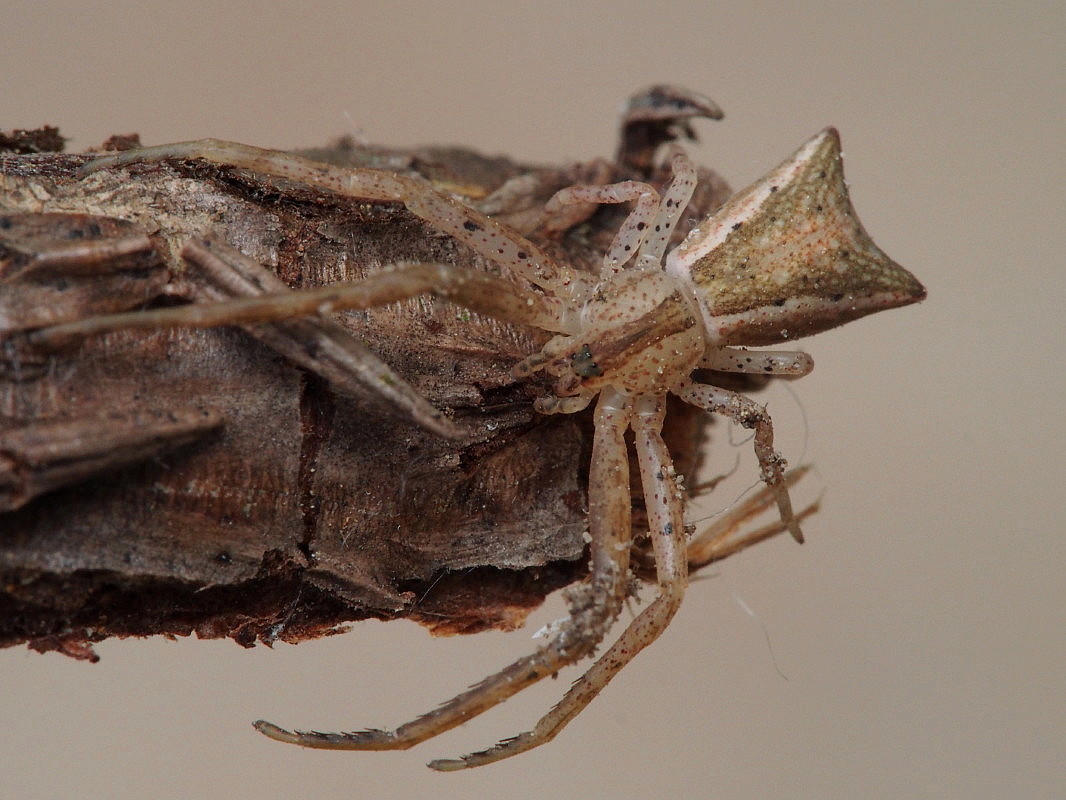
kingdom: Animalia
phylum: Arthropoda
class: Arachnida
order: Araneae
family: Thomisidae
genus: Sidymella
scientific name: Sidymella trapezia
